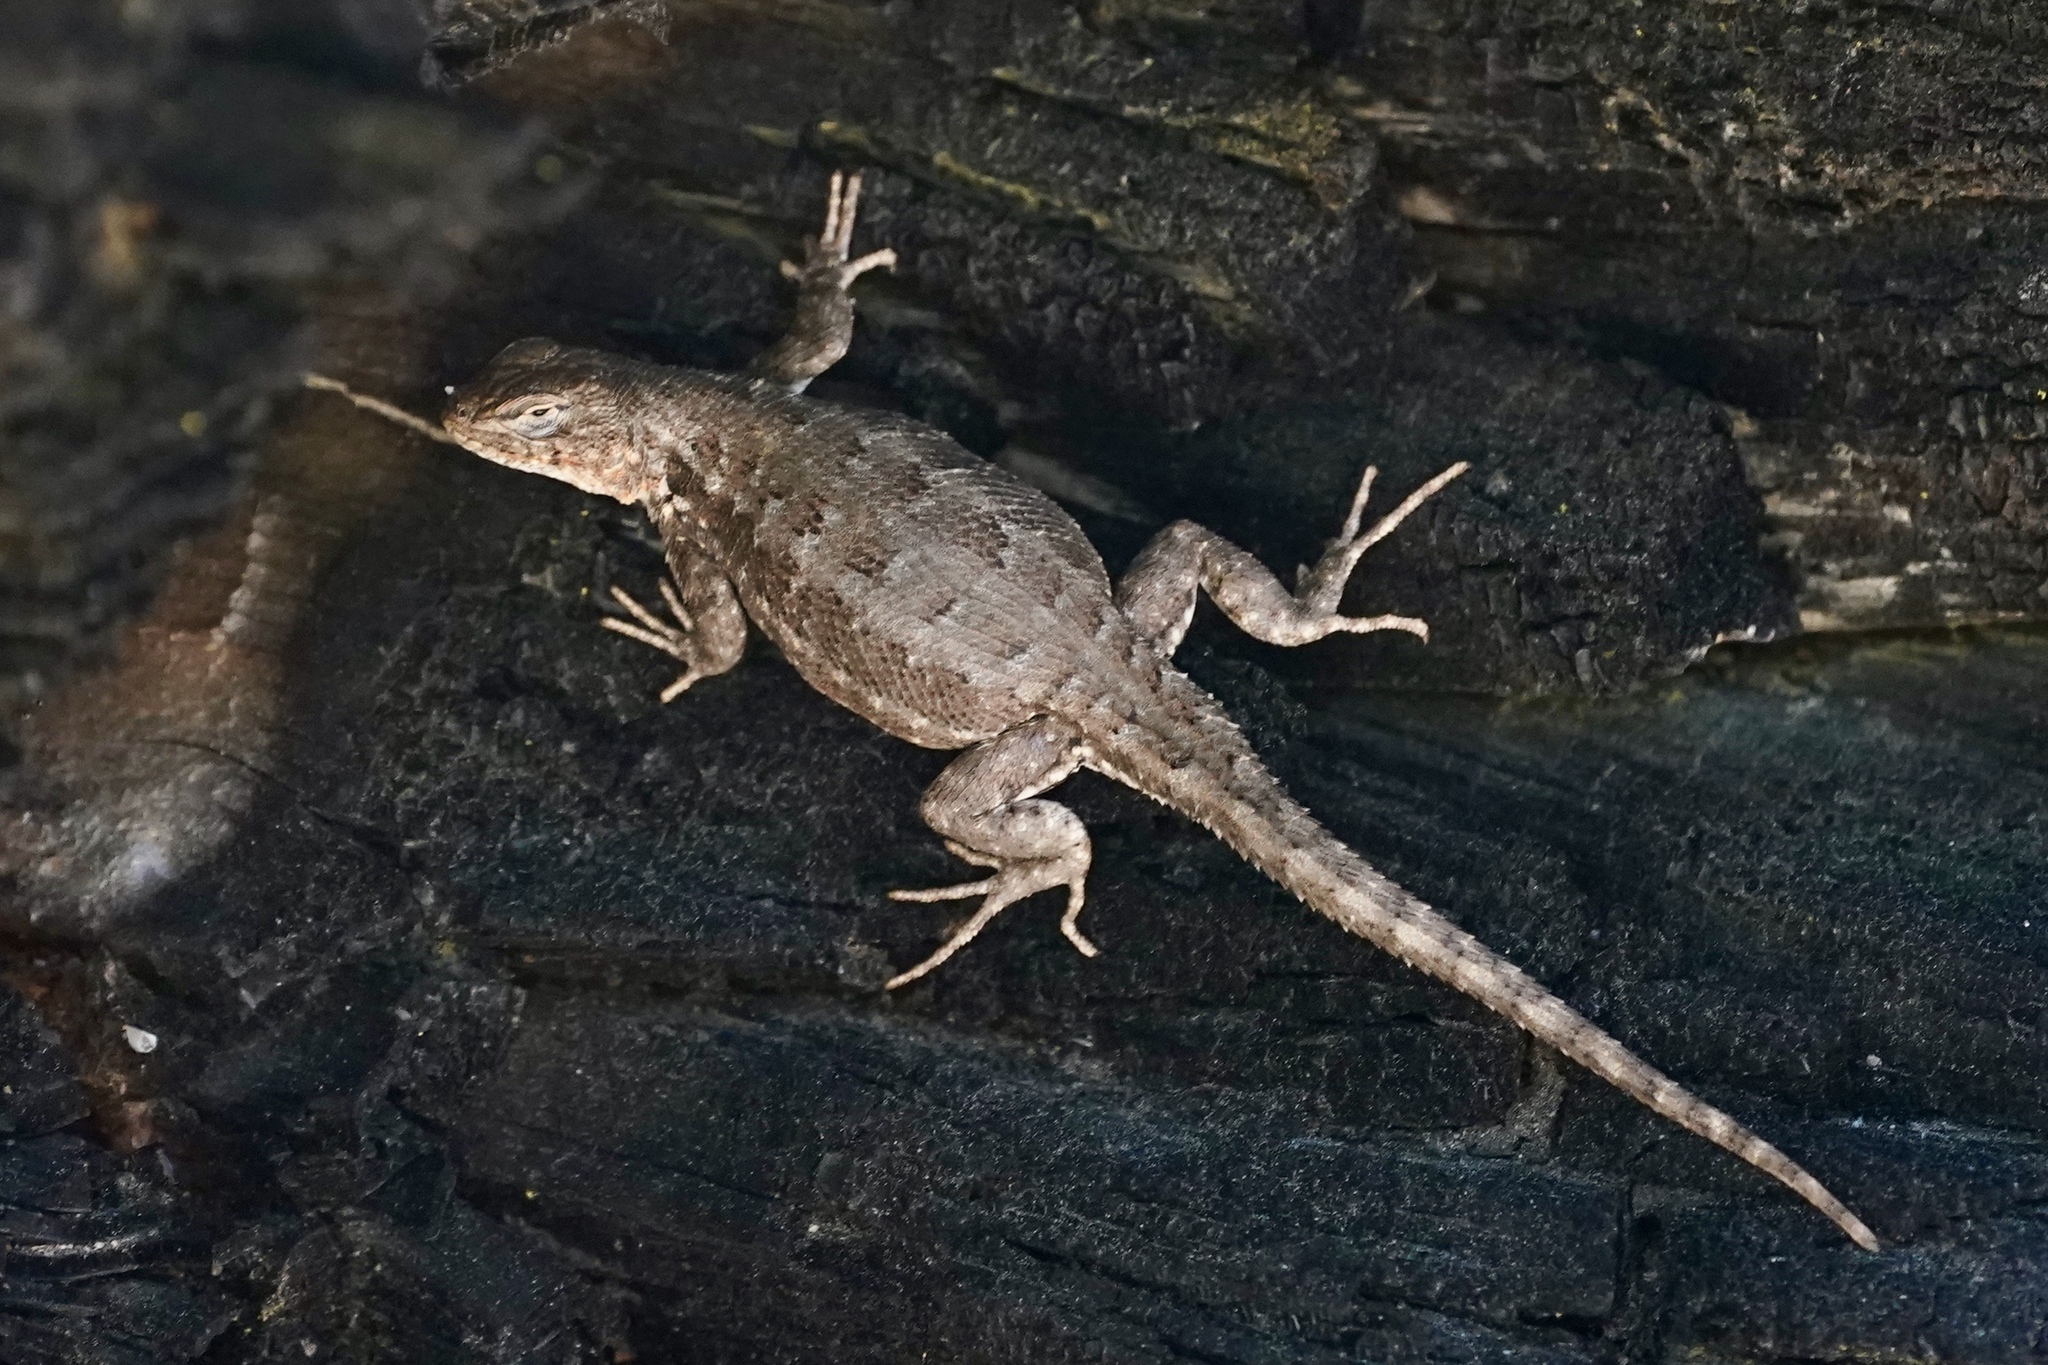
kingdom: Animalia
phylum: Chordata
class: Squamata
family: Phrynosomatidae
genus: Sceloporus
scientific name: Sceloporus graciosus
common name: Sagebrush lizard
